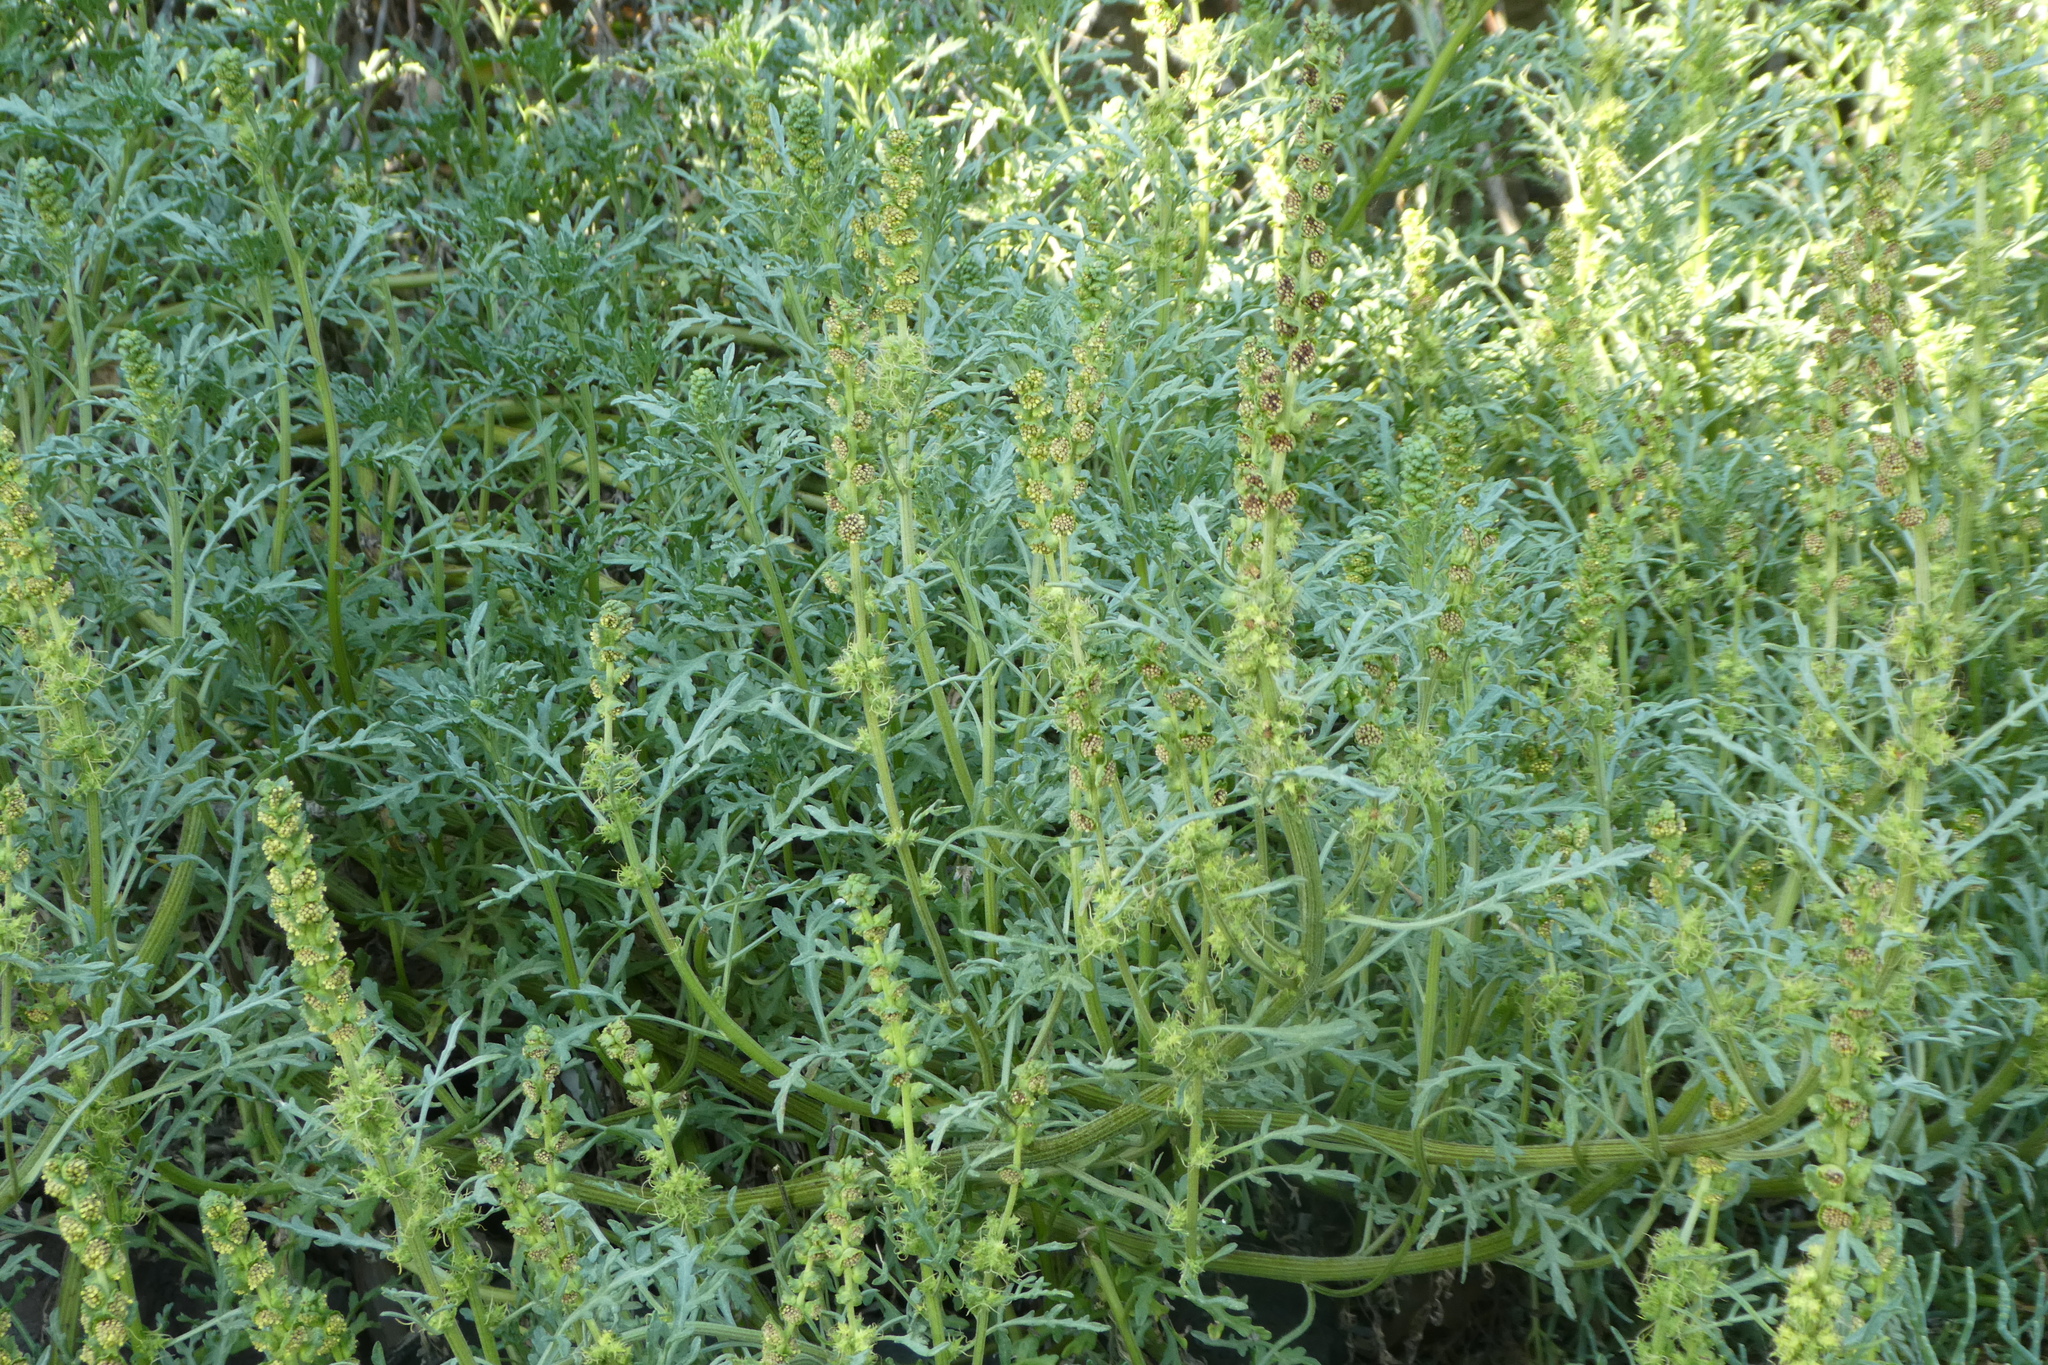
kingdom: Plantae
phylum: Tracheophyta
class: Magnoliopsida
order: Asterales
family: Asteraceae
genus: Ambrosia
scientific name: Ambrosia chamissonis
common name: Beachbur
